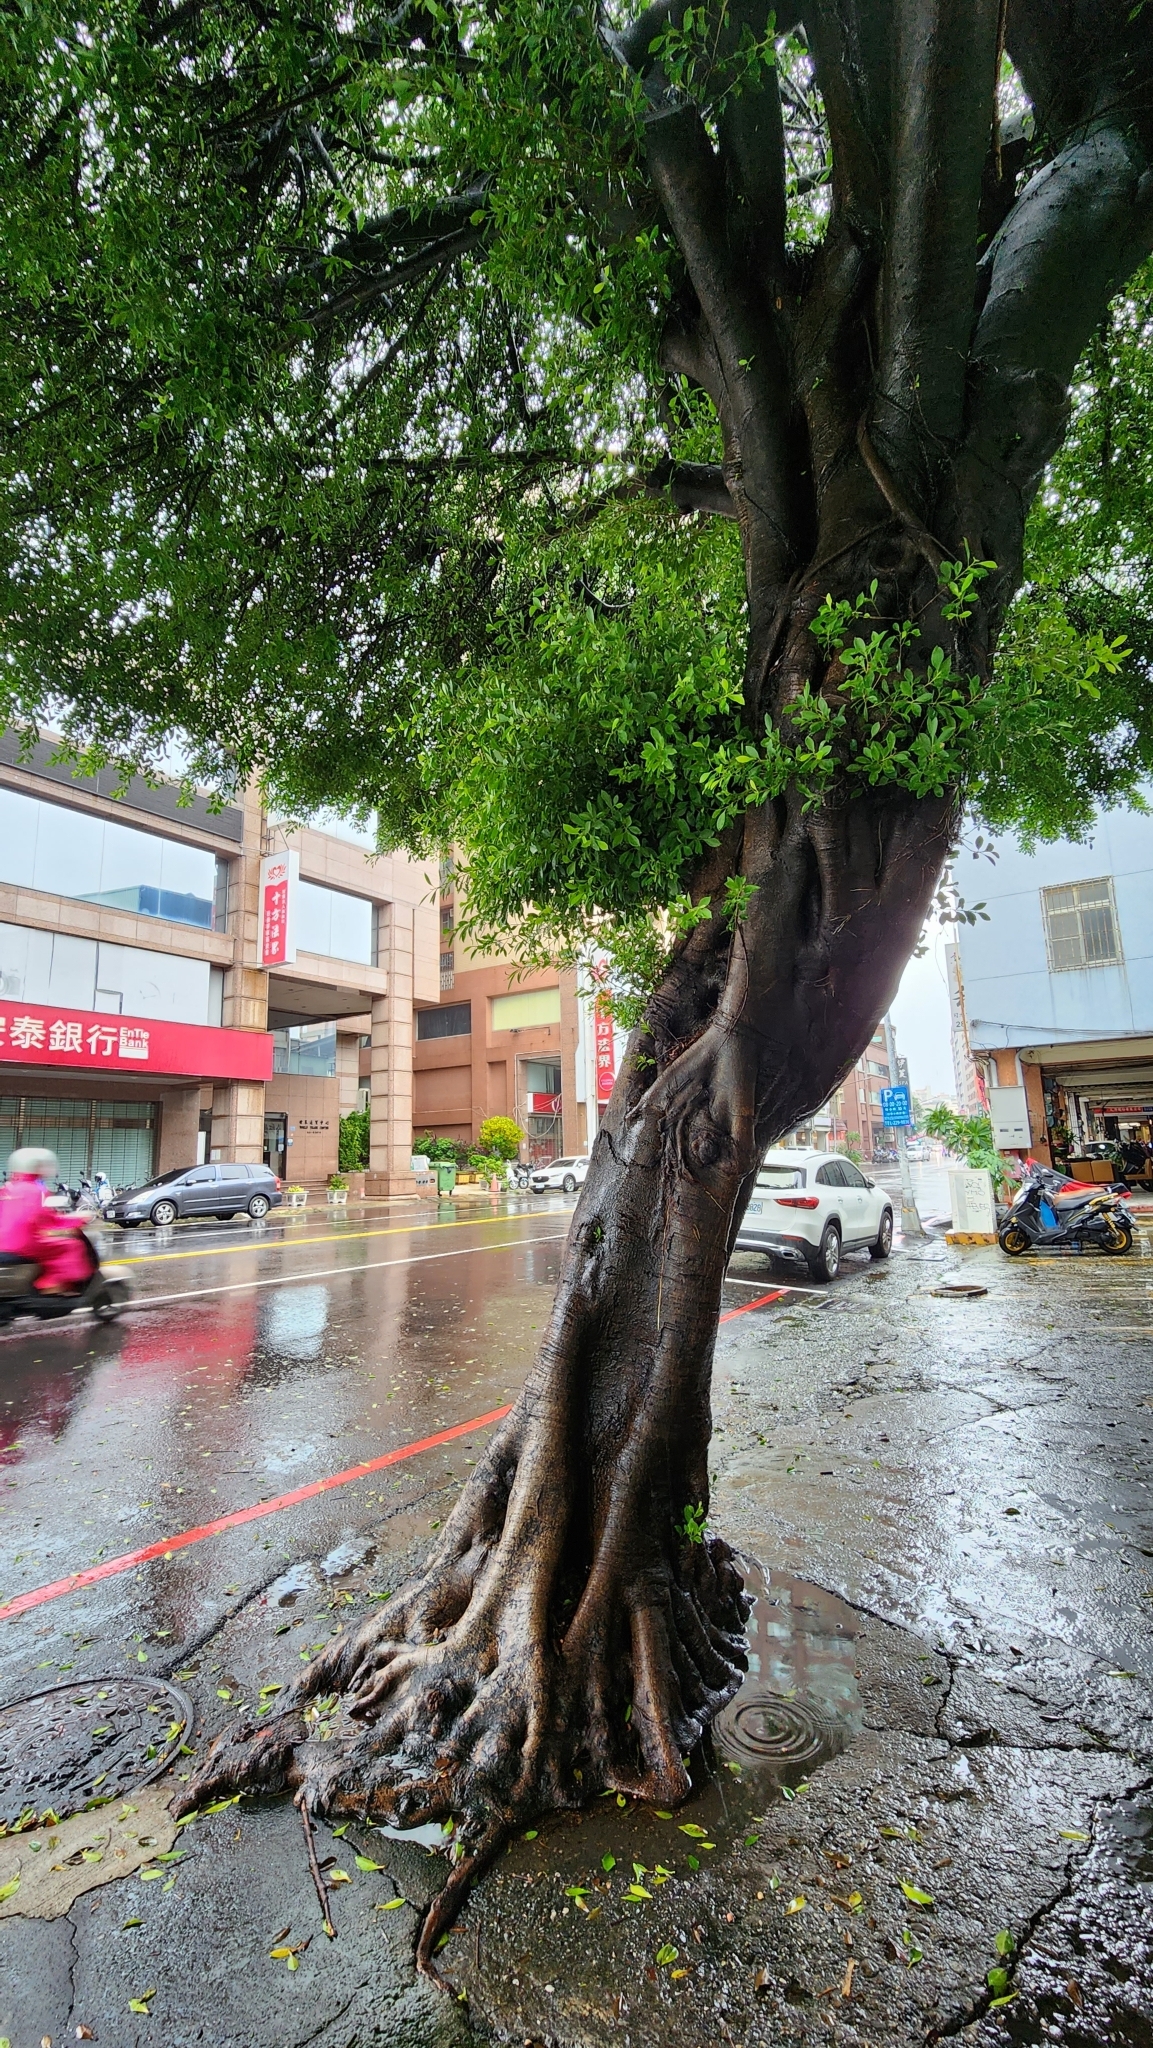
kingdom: Plantae
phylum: Tracheophyta
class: Magnoliopsida
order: Rosales
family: Moraceae
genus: Ficus
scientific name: Ficus microcarpa
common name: Chinese banyan
